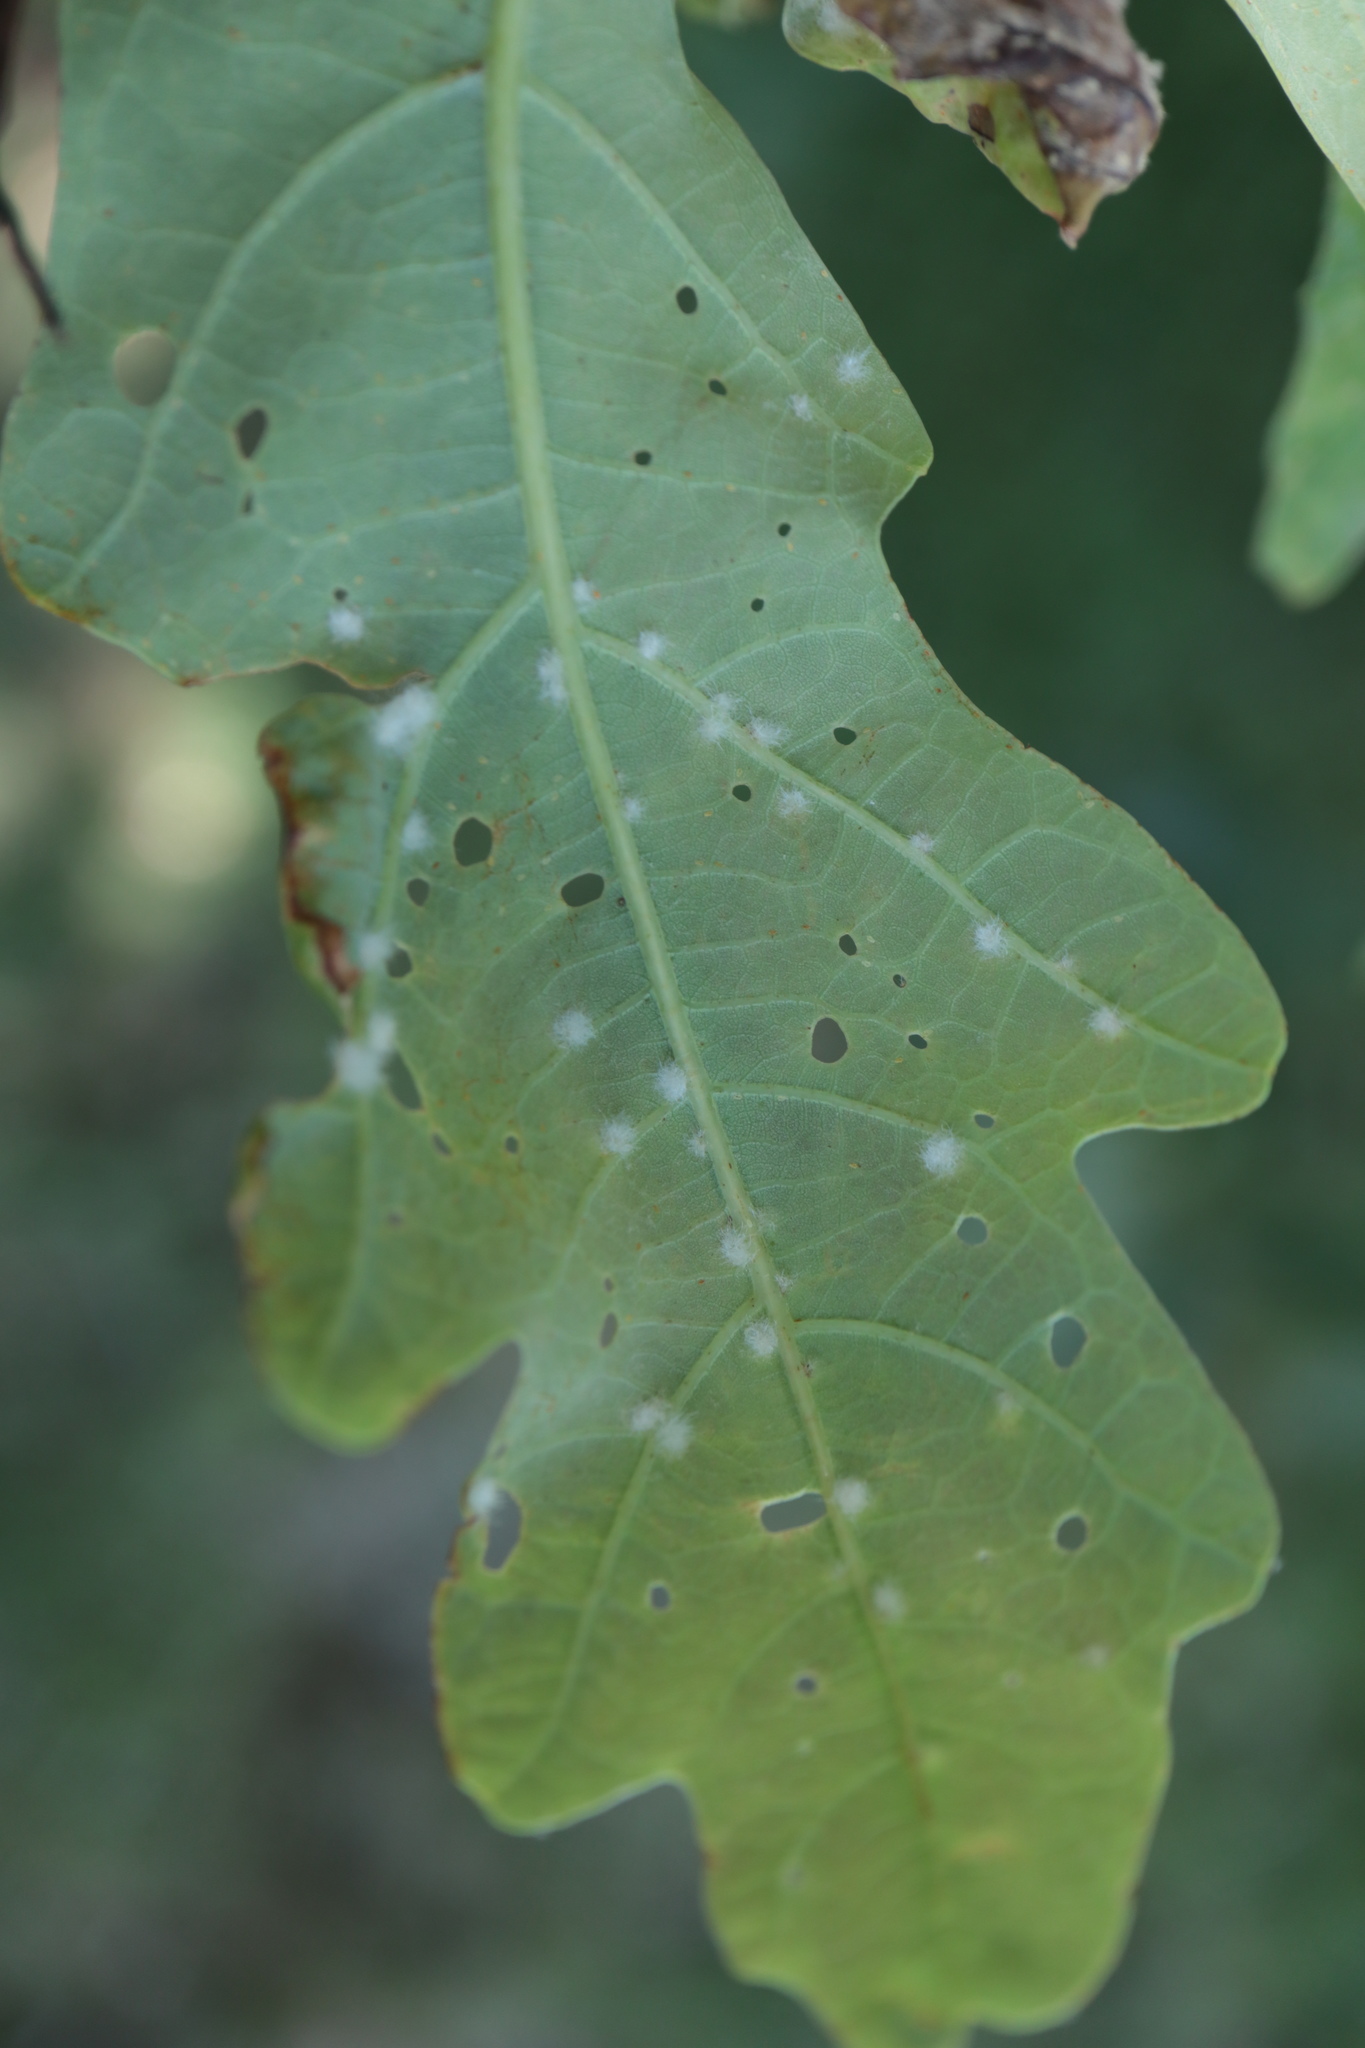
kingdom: Animalia
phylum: Arthropoda
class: Insecta
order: Hymenoptera
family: Cynipidae
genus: Neuroterus
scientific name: Neuroterus quercusverrucarum
